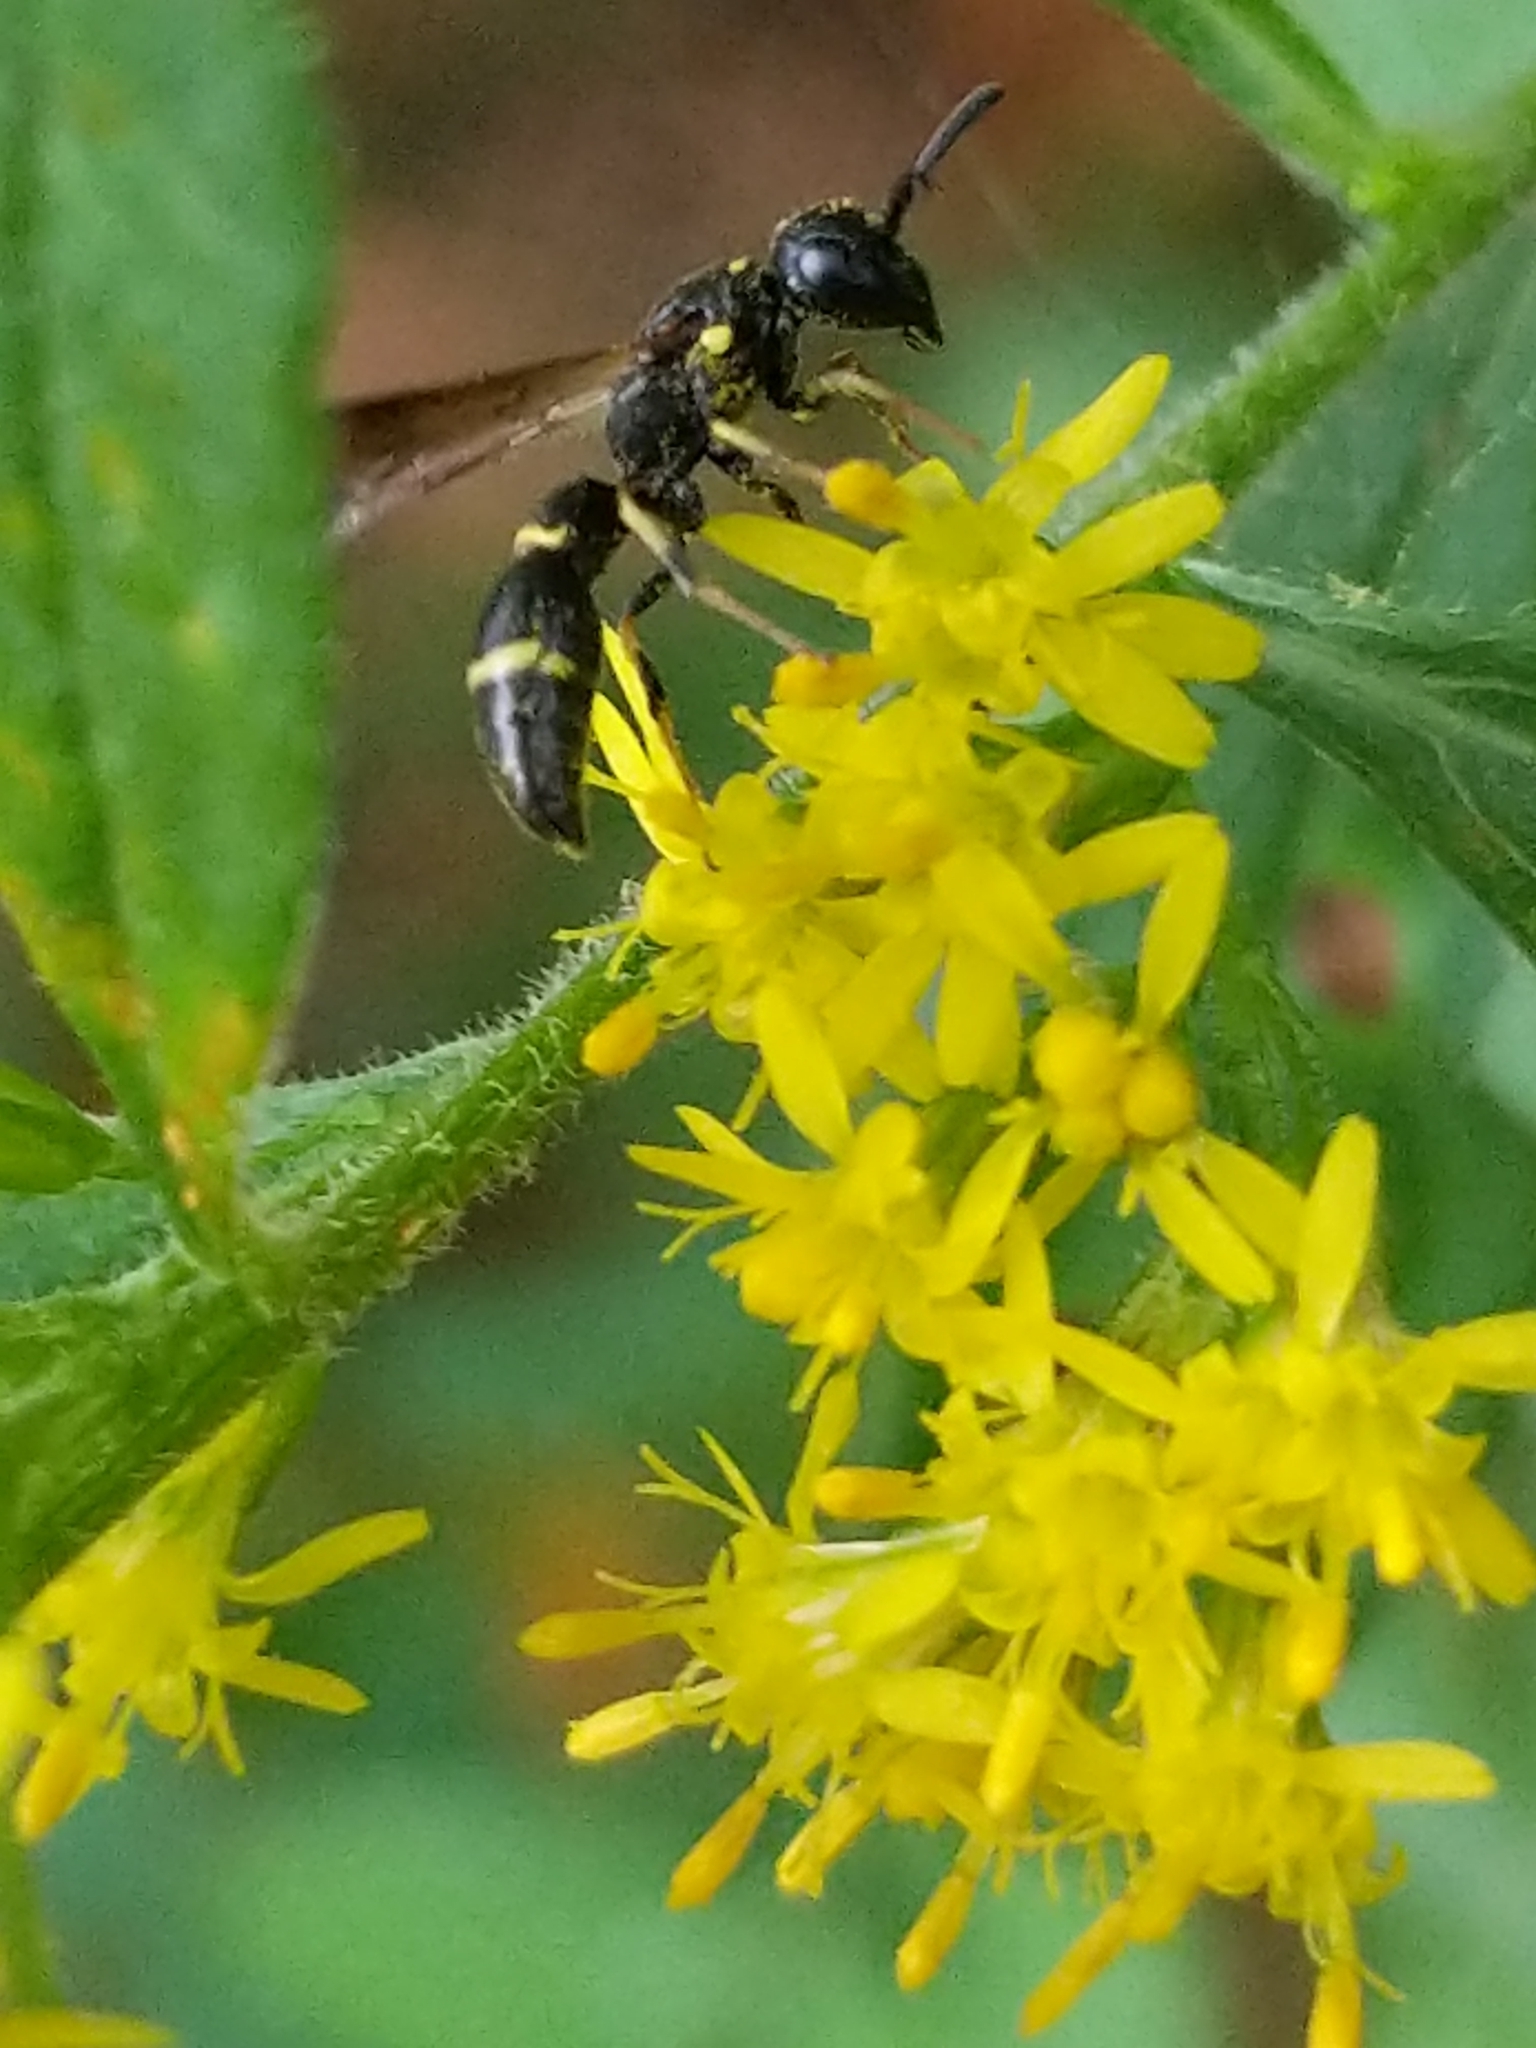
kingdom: Animalia
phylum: Arthropoda
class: Insecta
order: Hymenoptera
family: Eumenidae
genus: Symmorphus
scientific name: Symmorphus
